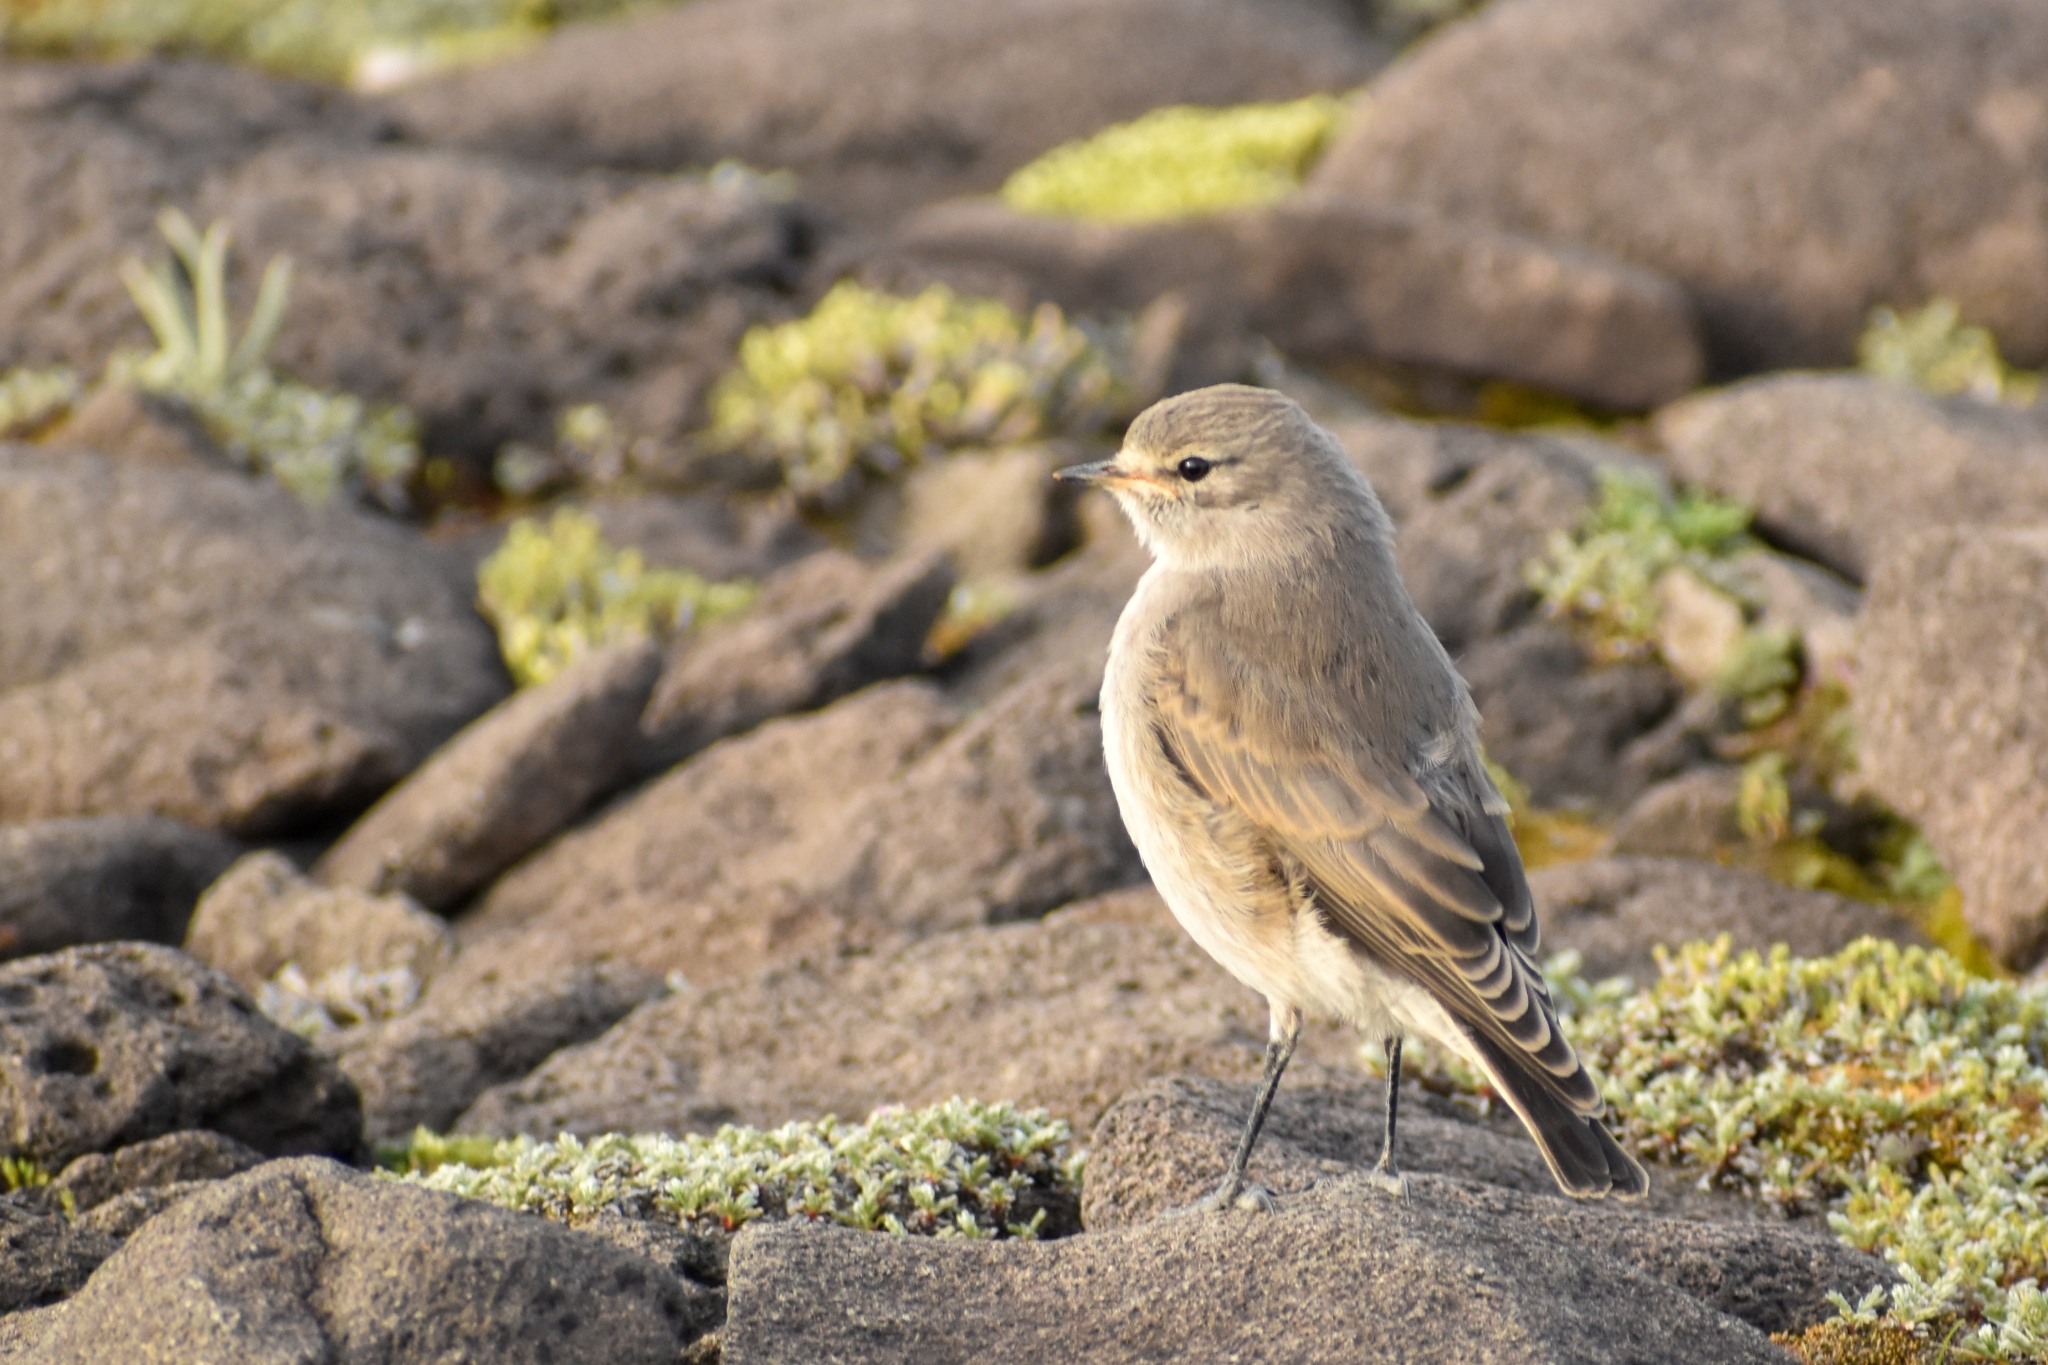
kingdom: Animalia
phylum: Chordata
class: Aves
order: Passeriformes
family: Tyrannidae
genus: Muscisaxicola
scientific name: Muscisaxicola flavinucha
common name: Ochre-naped ground tyrant
